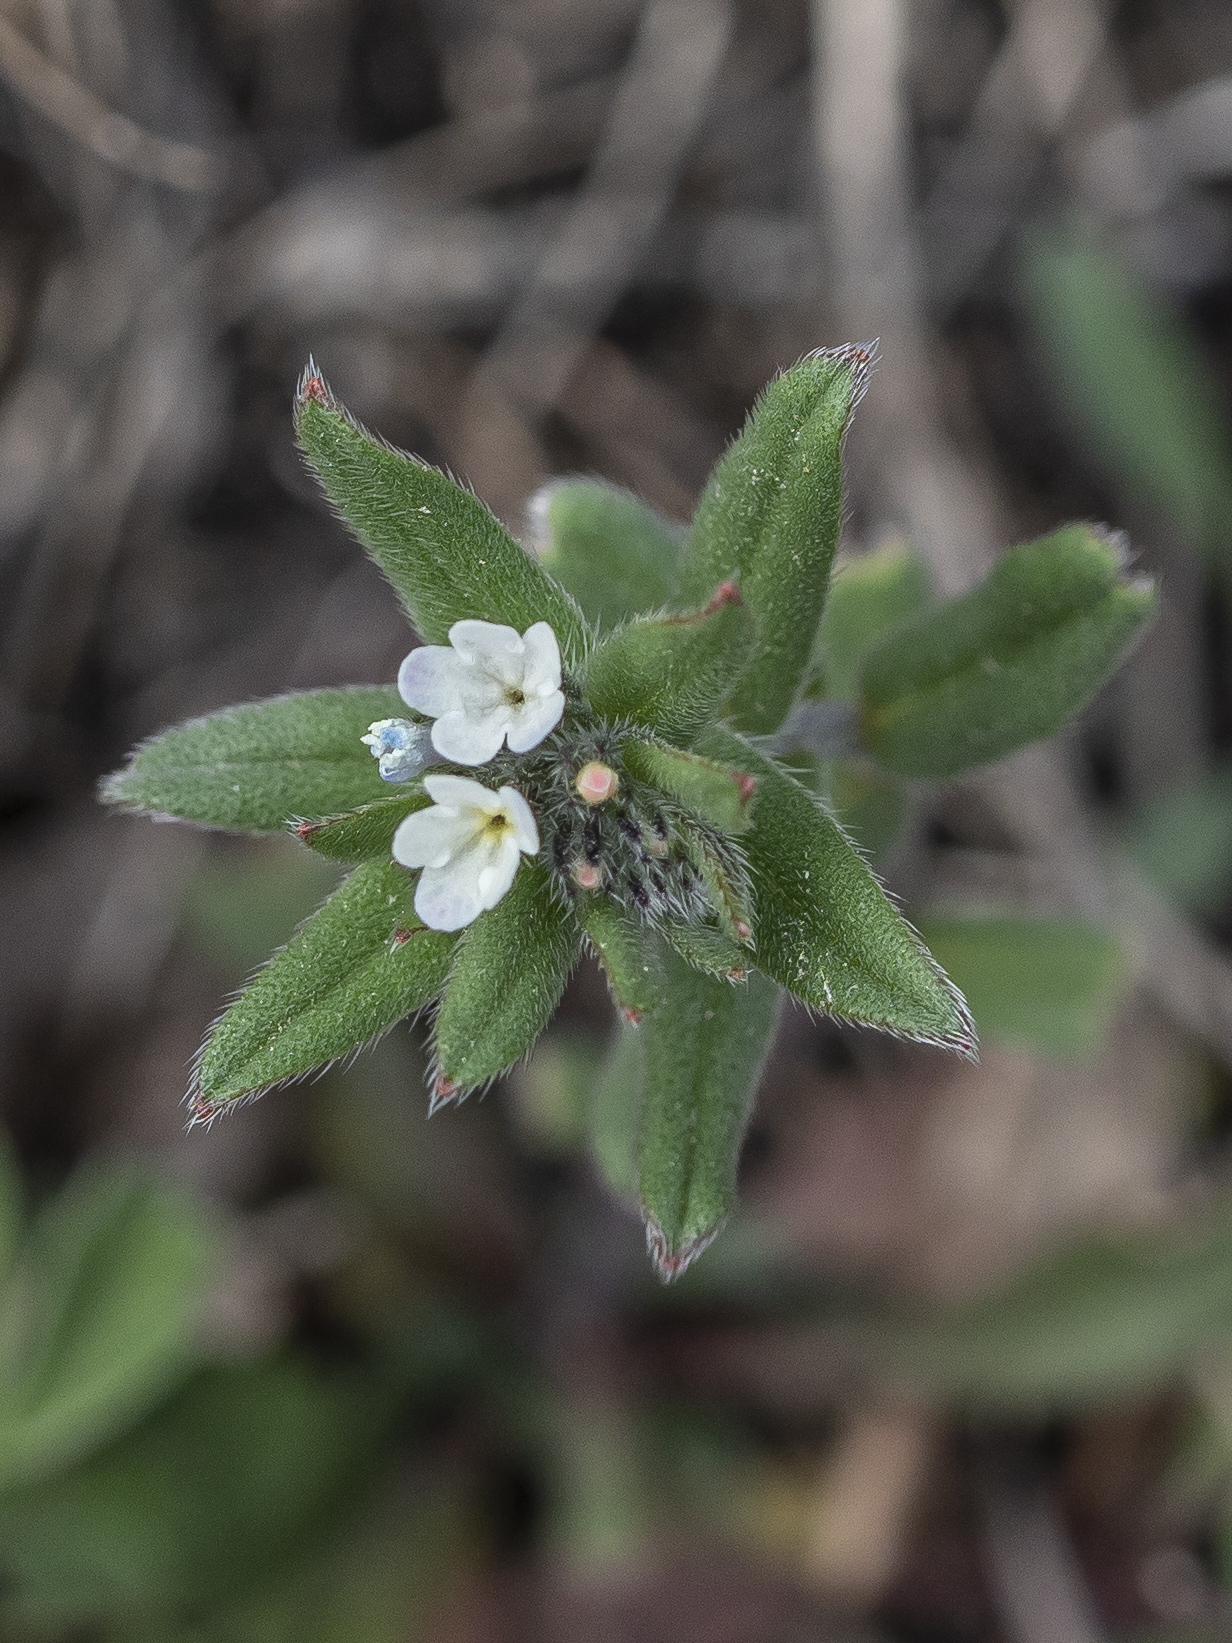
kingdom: Plantae
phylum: Tracheophyta
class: Magnoliopsida
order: Boraginales
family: Boraginaceae
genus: Buglossoides
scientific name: Buglossoides arvensis
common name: Corn gromwell
